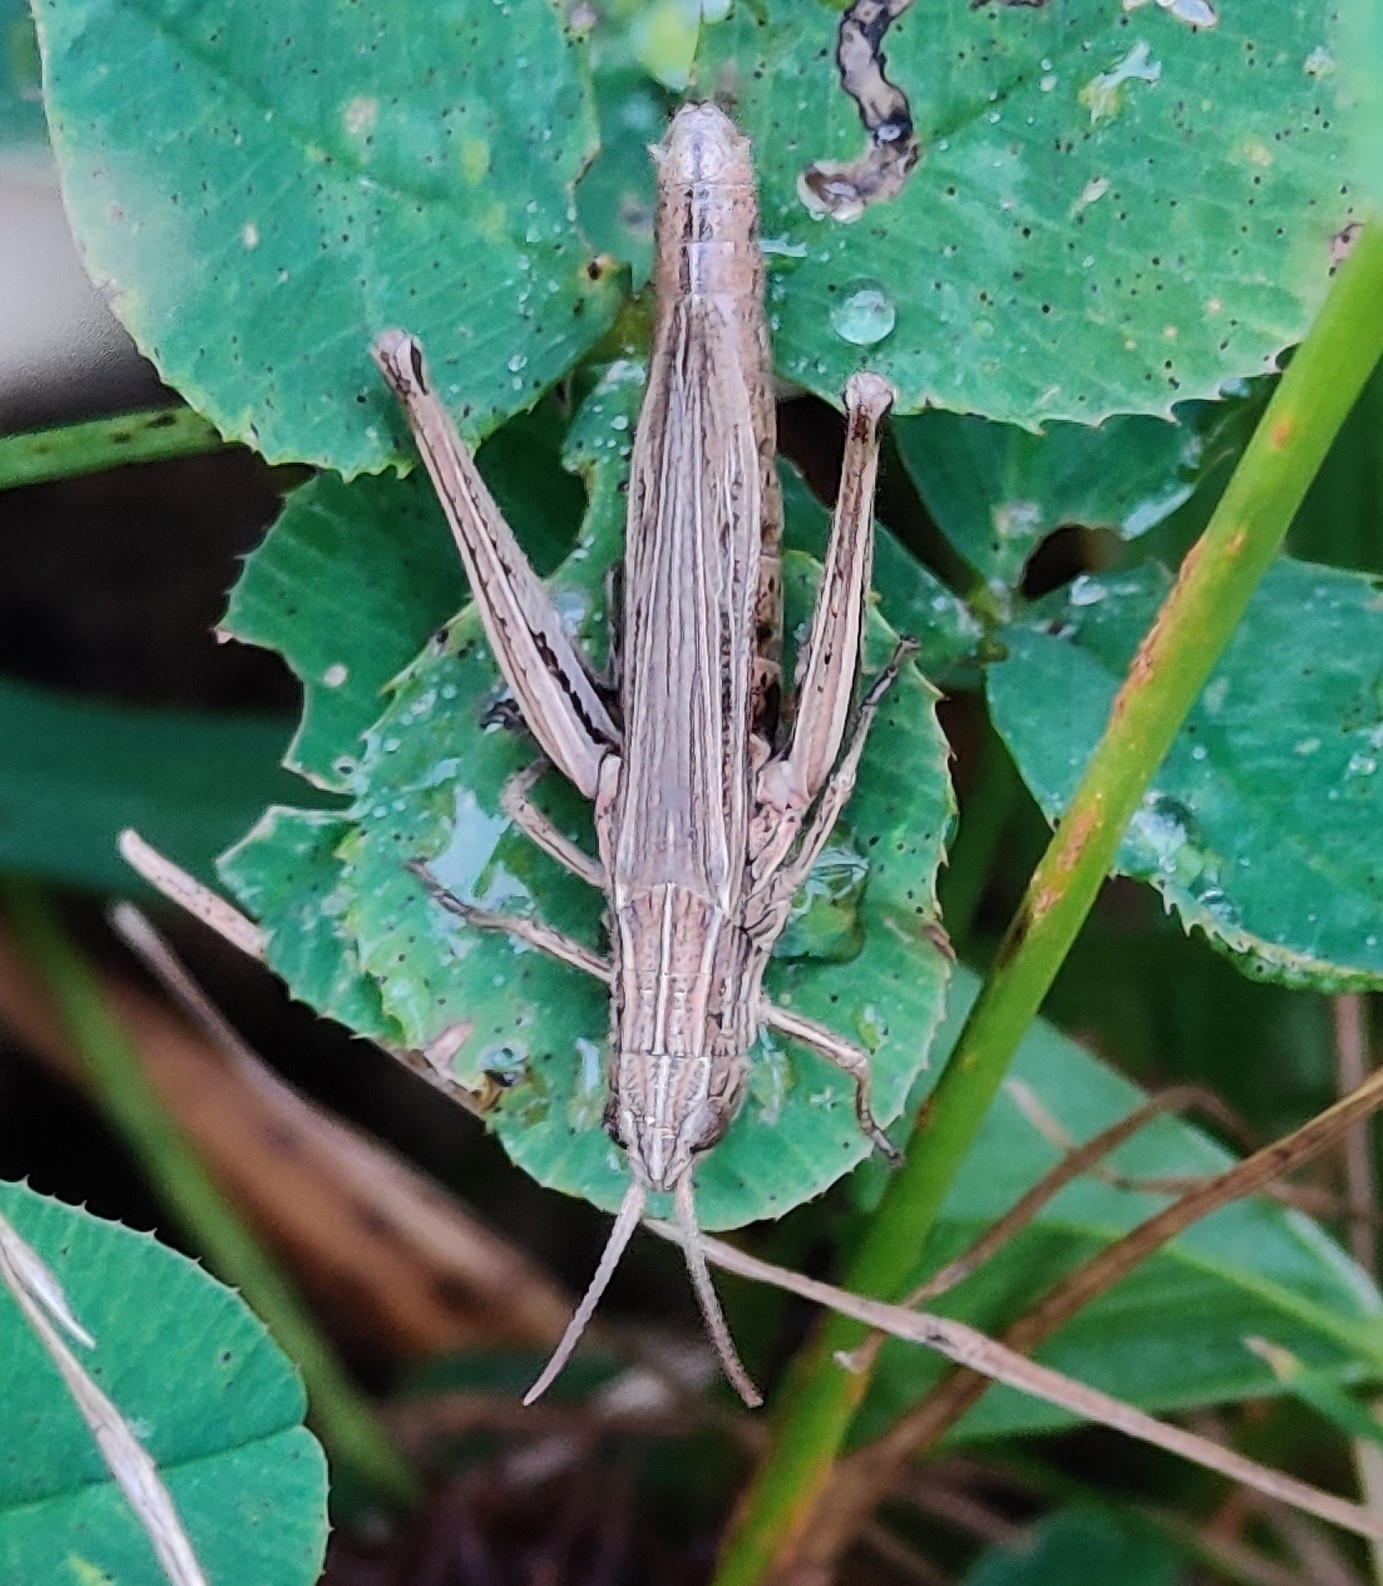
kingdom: Animalia
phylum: Arthropoda
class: Insecta
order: Orthoptera
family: Acrididae
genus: Chorthippus
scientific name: Chorthippus albomarginatus
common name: Lesser marsh grasshopper
